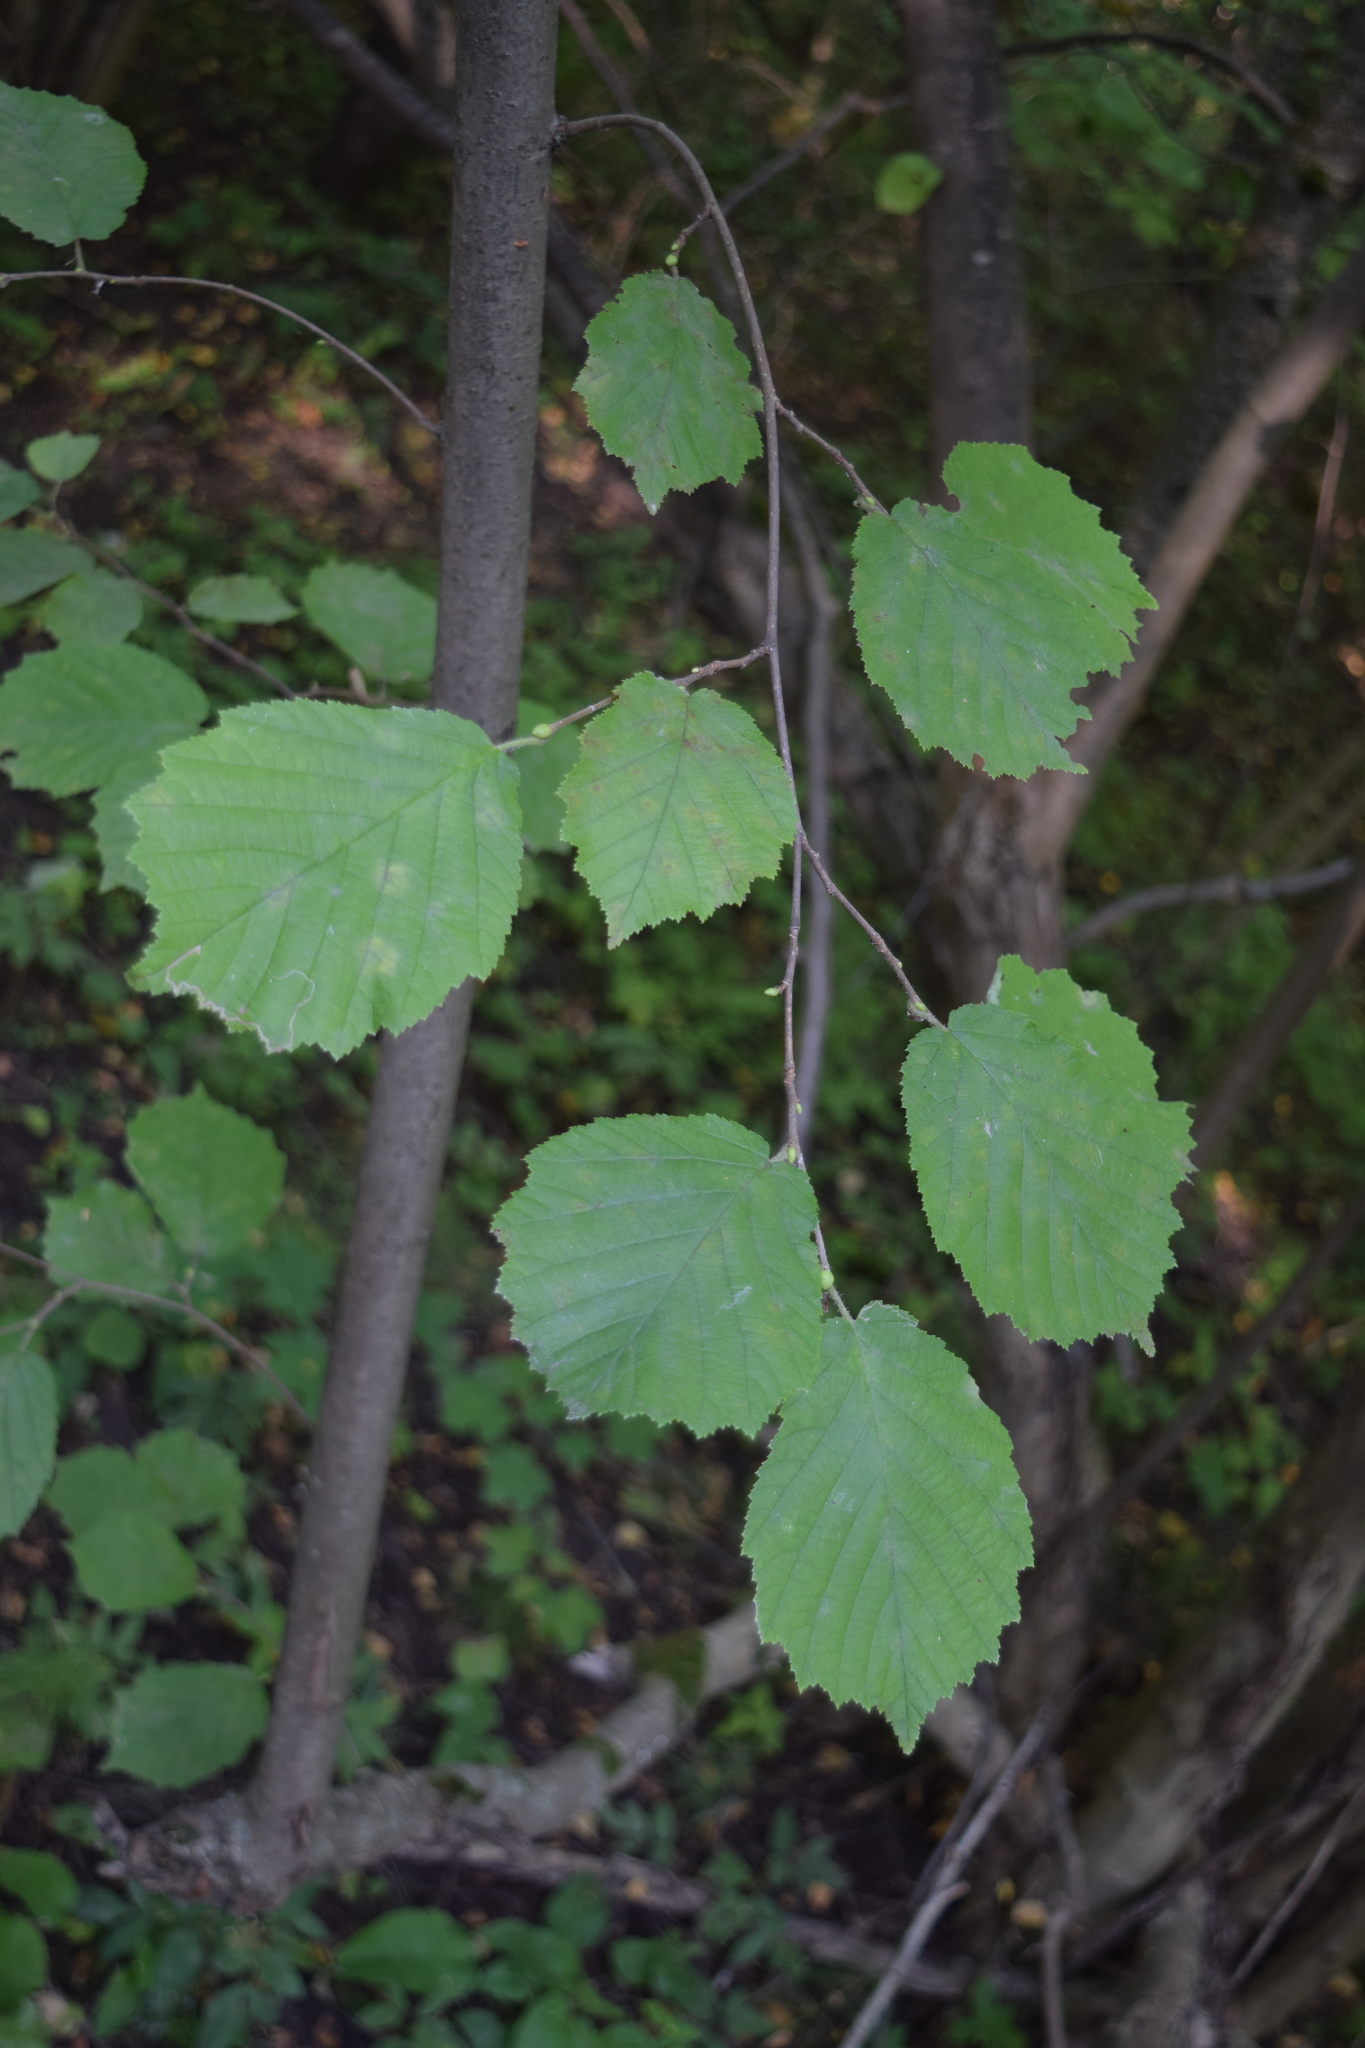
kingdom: Plantae
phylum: Tracheophyta
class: Magnoliopsida
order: Fagales
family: Betulaceae
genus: Corylus
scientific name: Corylus avellana
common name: European hazel
